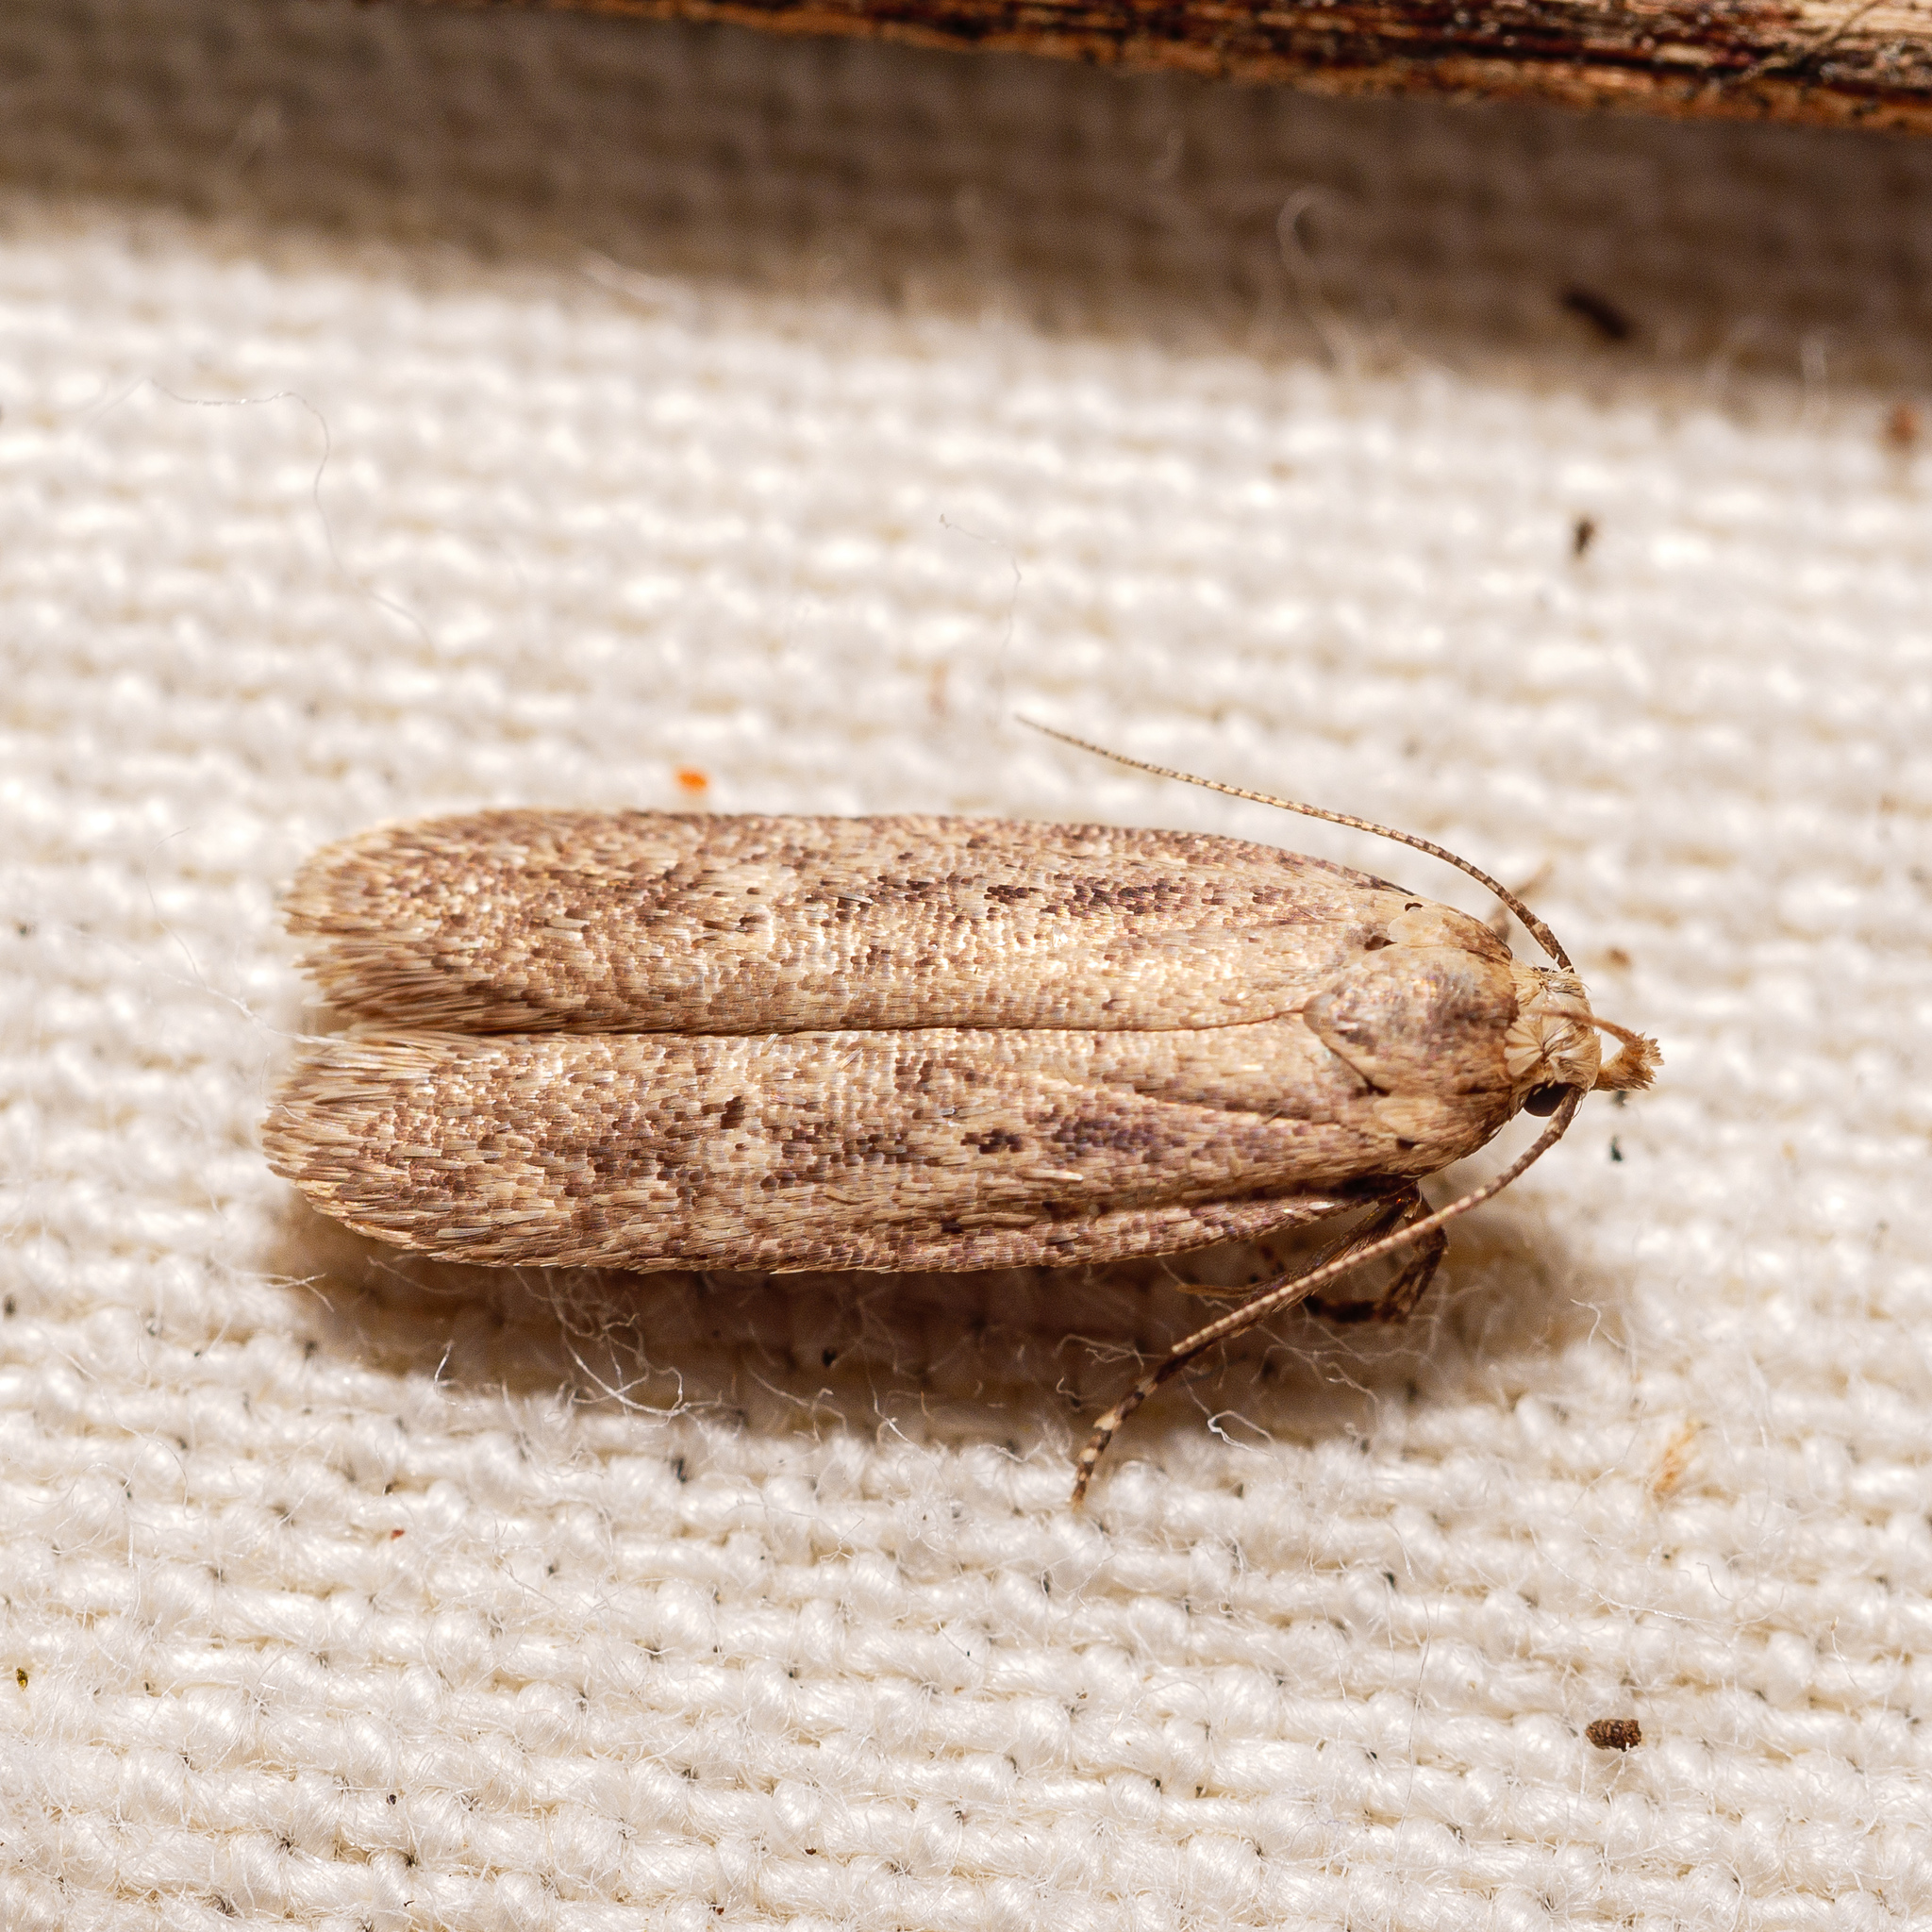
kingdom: Animalia
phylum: Arthropoda
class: Insecta
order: Lepidoptera
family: Gelechiidae
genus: Platyedra
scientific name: Platyedra subcinerea
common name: Moth
